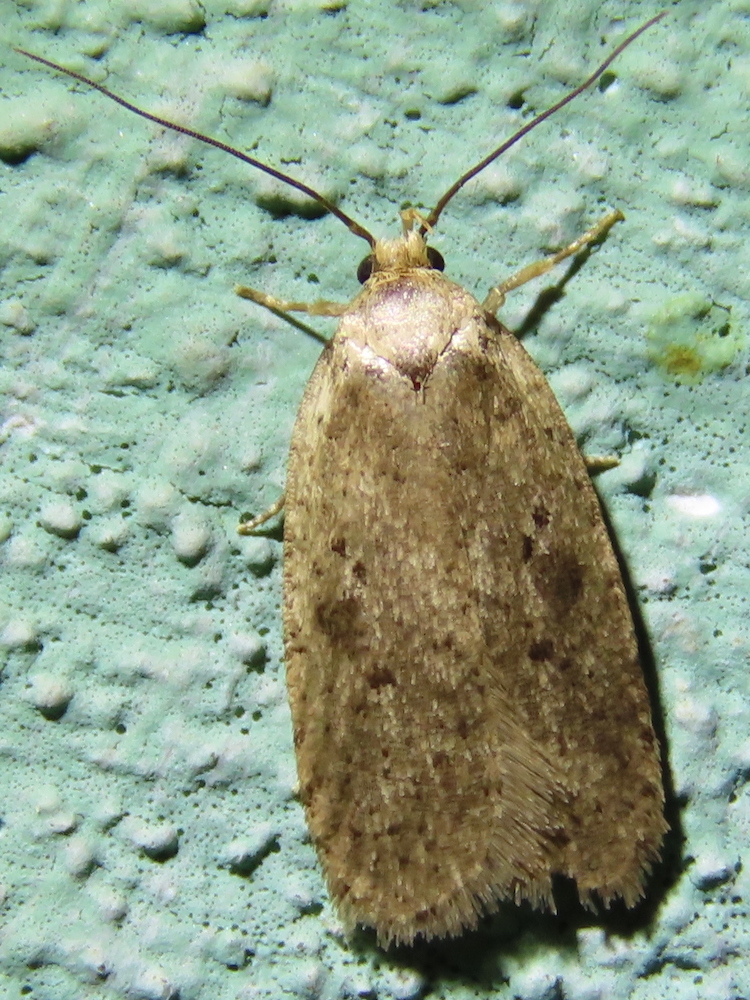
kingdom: Animalia
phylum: Arthropoda
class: Insecta
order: Lepidoptera
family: Depressariidae
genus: Agonopterix
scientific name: Agonopterix canadensis
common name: Canadian agonopterix moth
